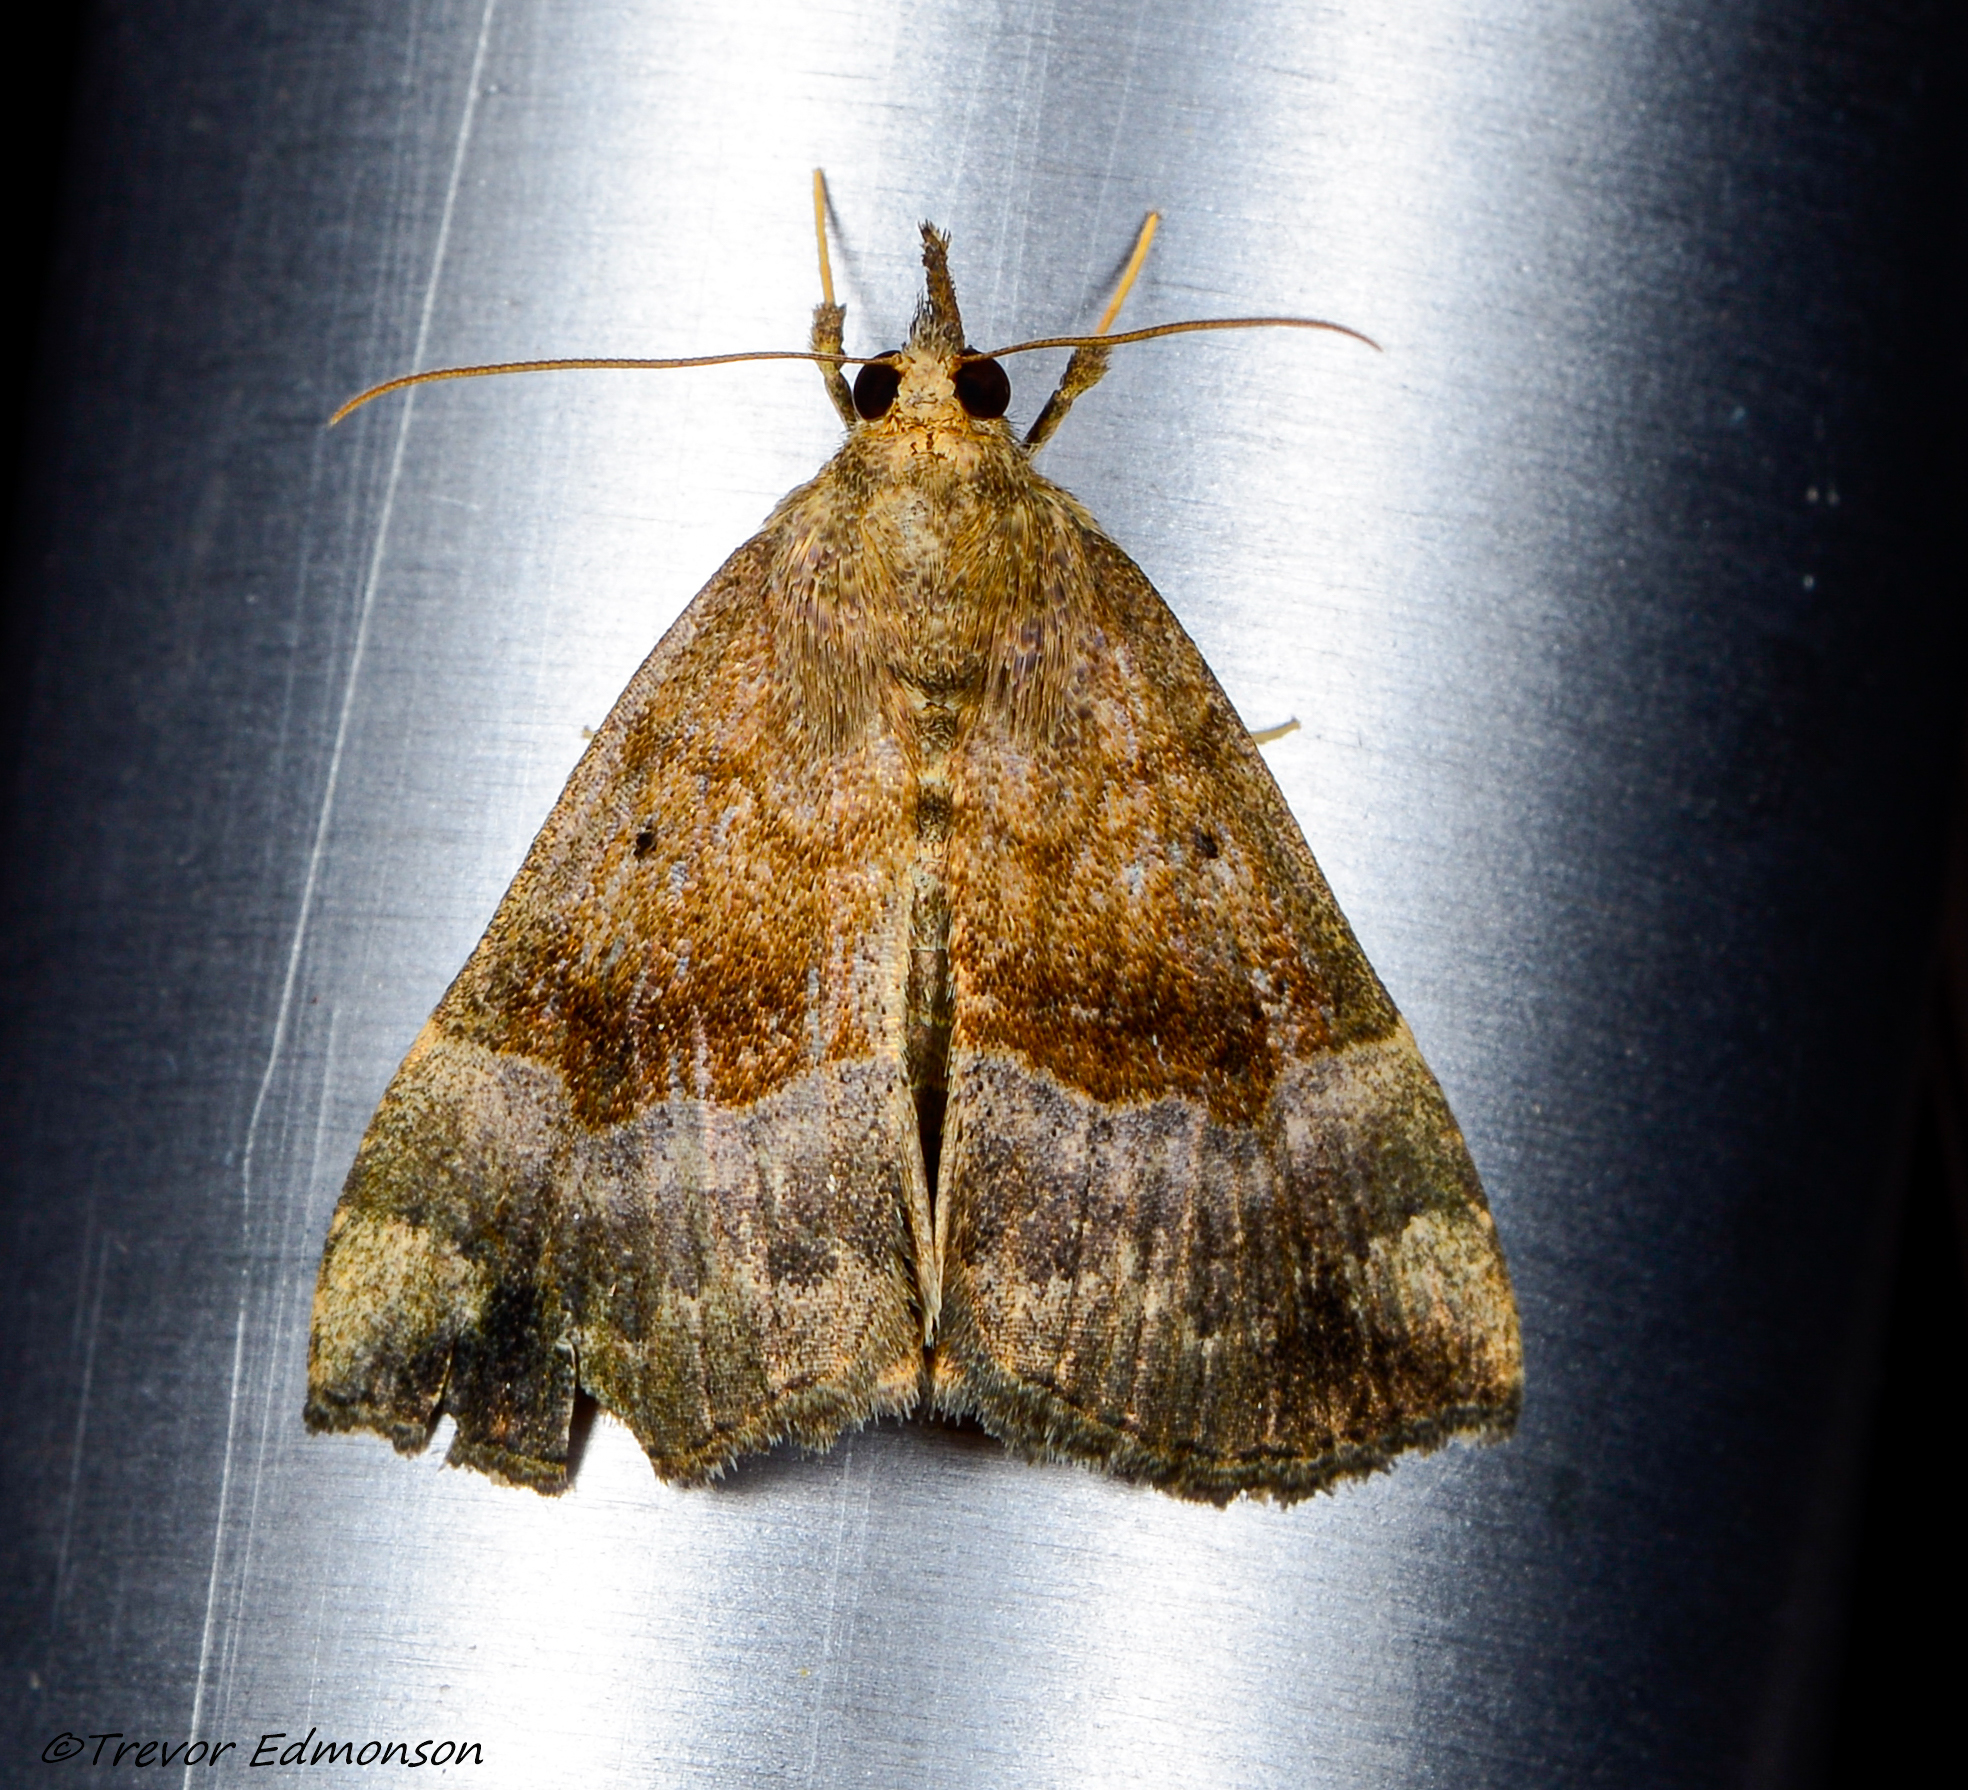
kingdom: Animalia
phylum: Arthropoda
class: Insecta
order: Lepidoptera
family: Erebidae
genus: Hypena
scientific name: Hypena madefactalis
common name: Gray-edged snout
